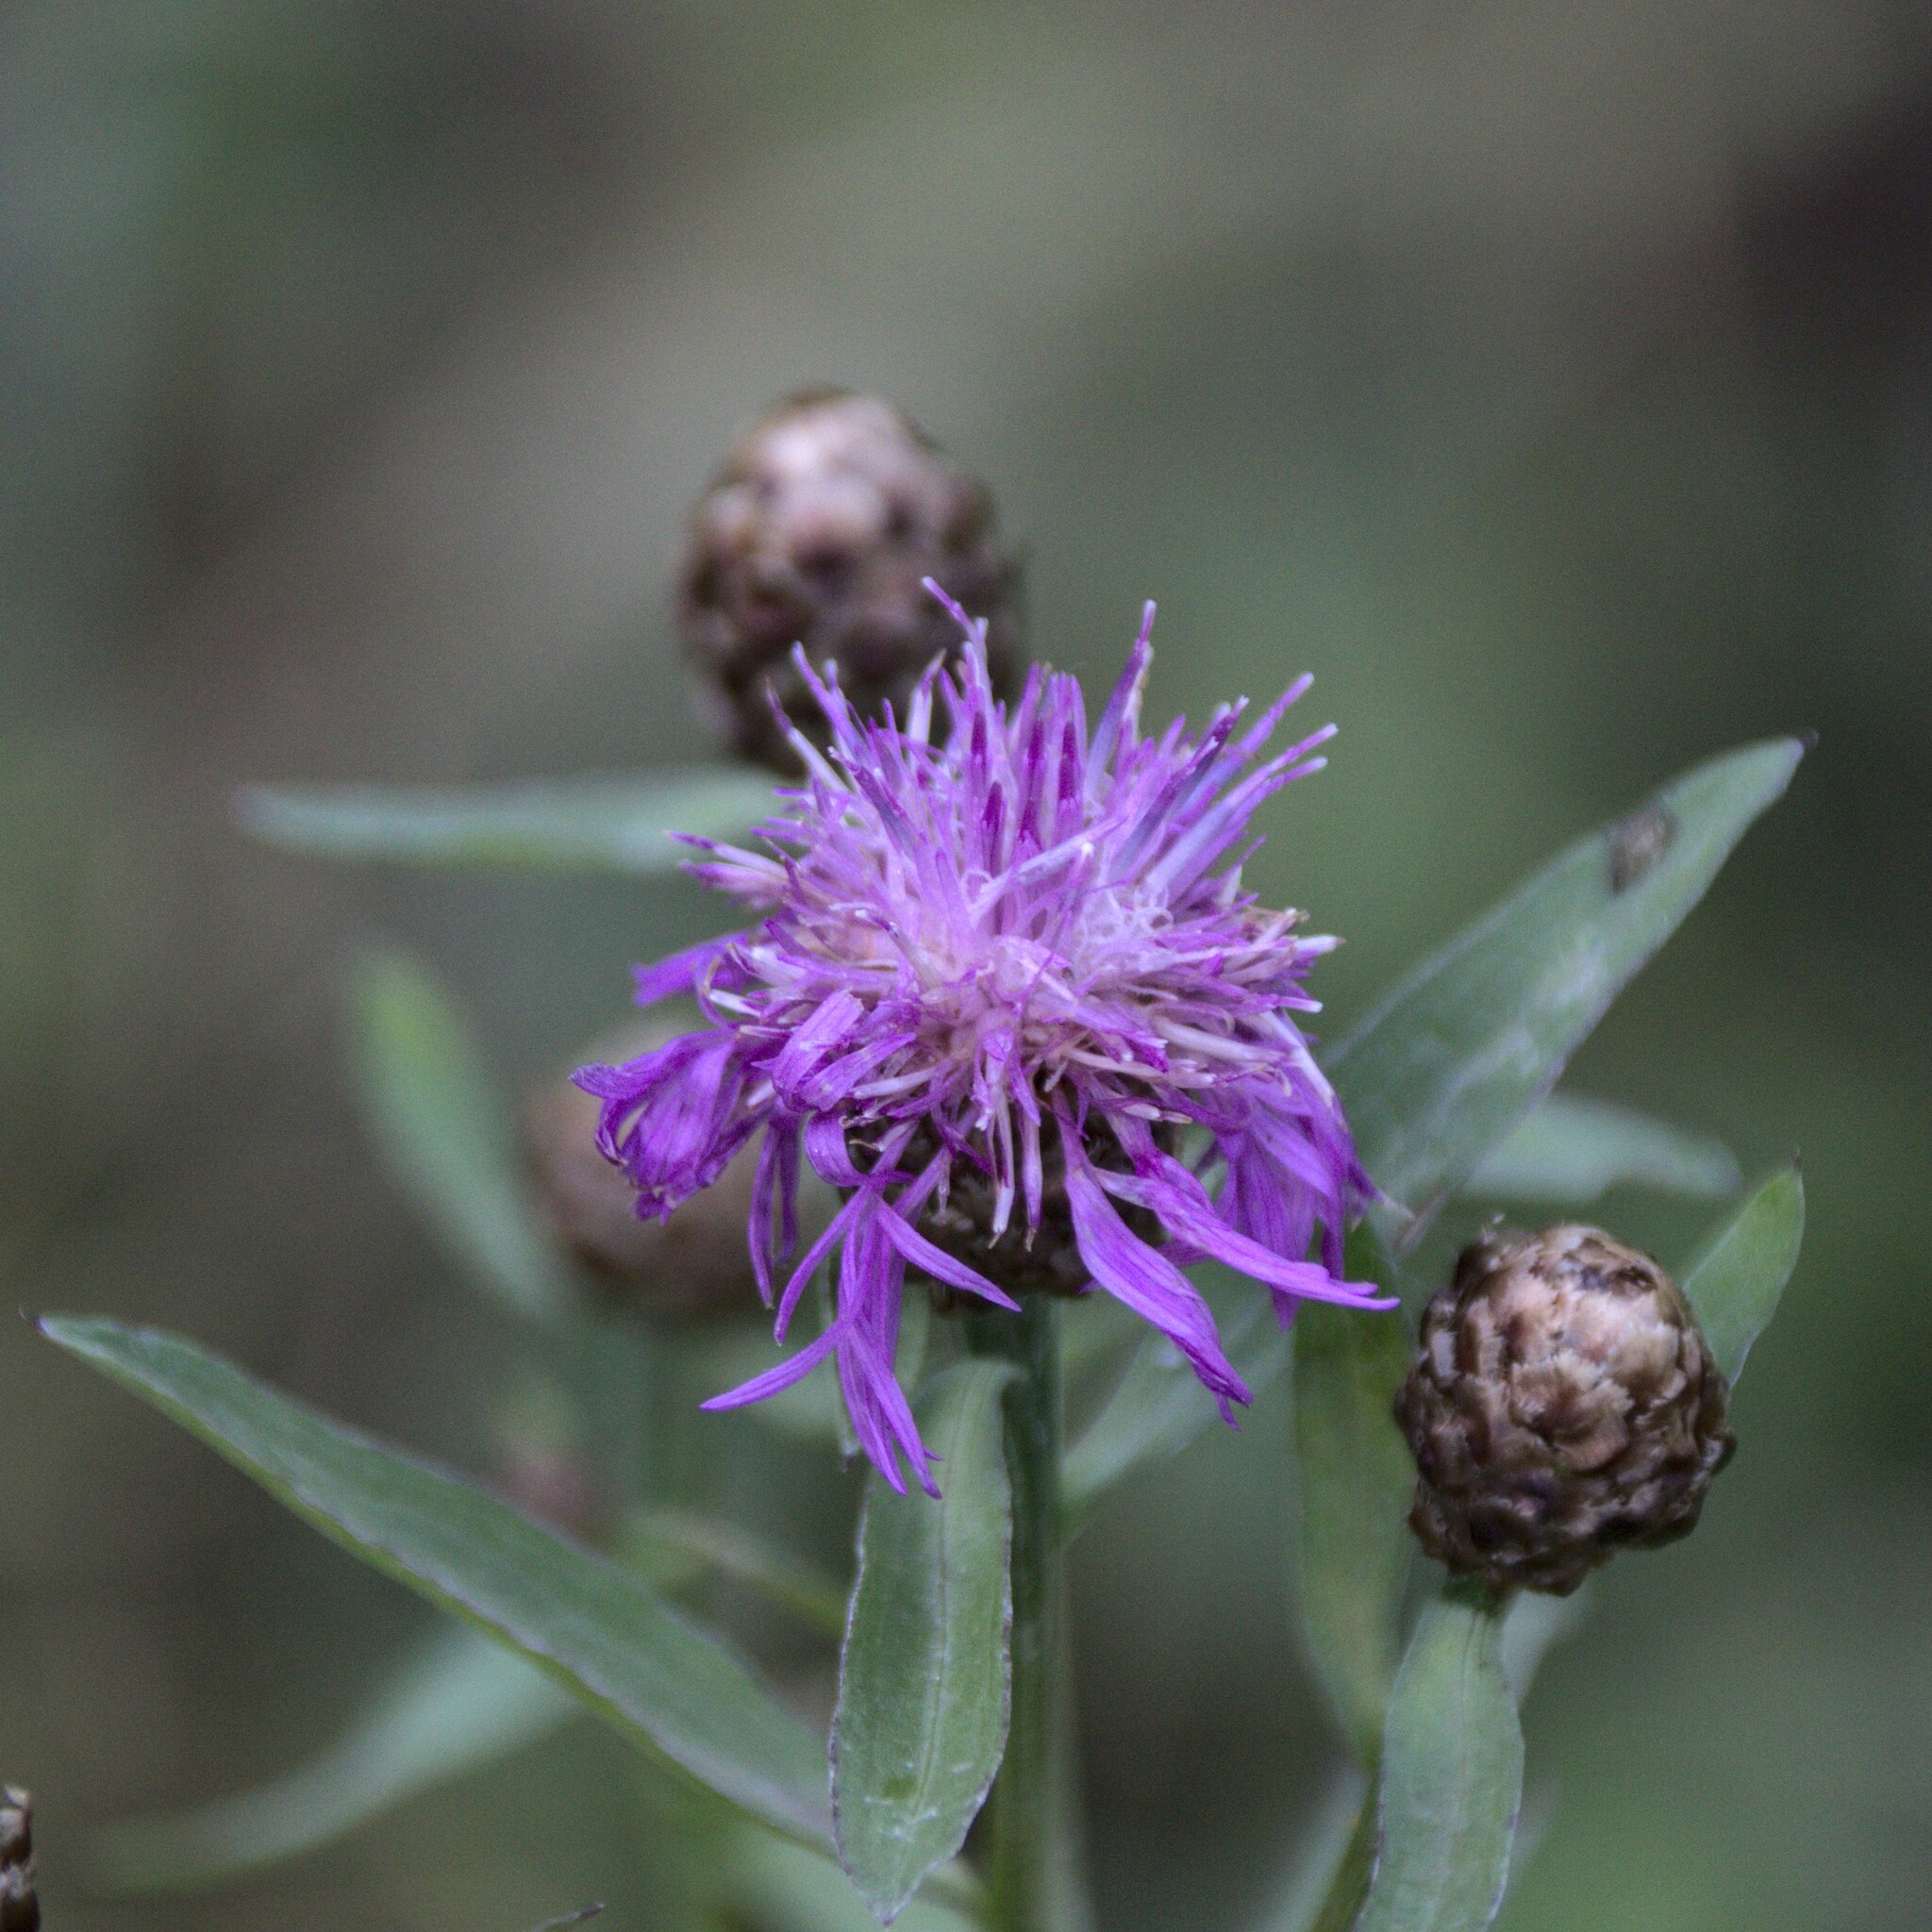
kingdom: Plantae
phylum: Tracheophyta
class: Magnoliopsida
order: Asterales
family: Asteraceae
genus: Centaurea
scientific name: Centaurea jacea
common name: Brown knapweed
